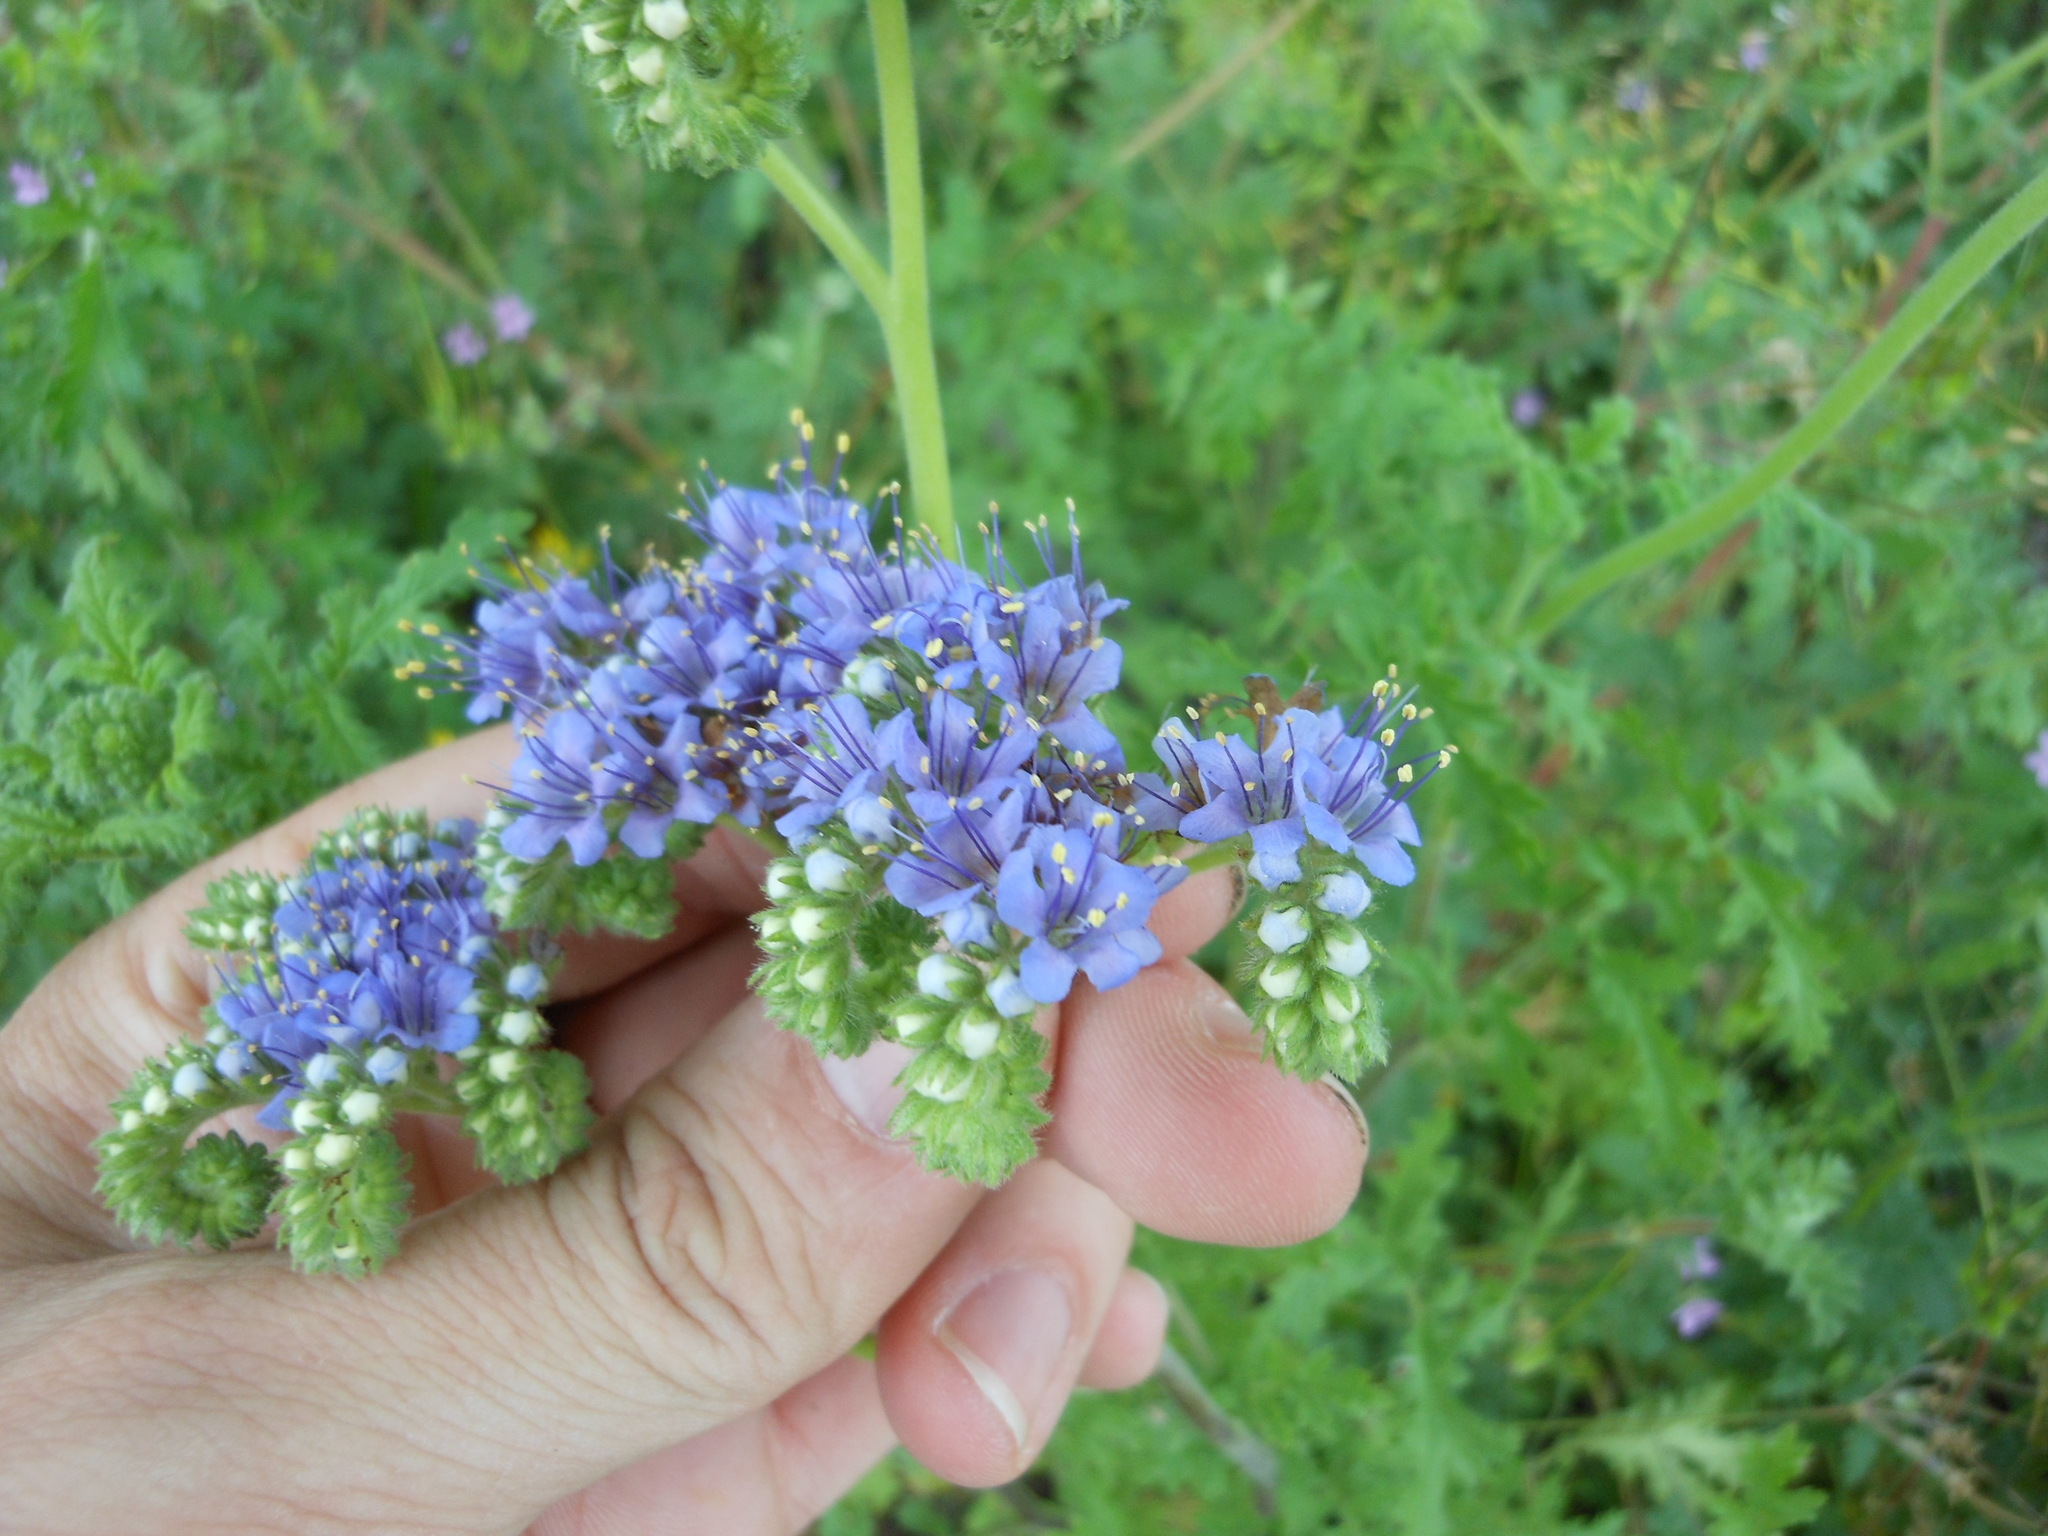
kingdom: Plantae
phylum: Tracheophyta
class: Magnoliopsida
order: Boraginales
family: Hydrophyllaceae
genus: Phacelia
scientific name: Phacelia congesta
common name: Blue curls
